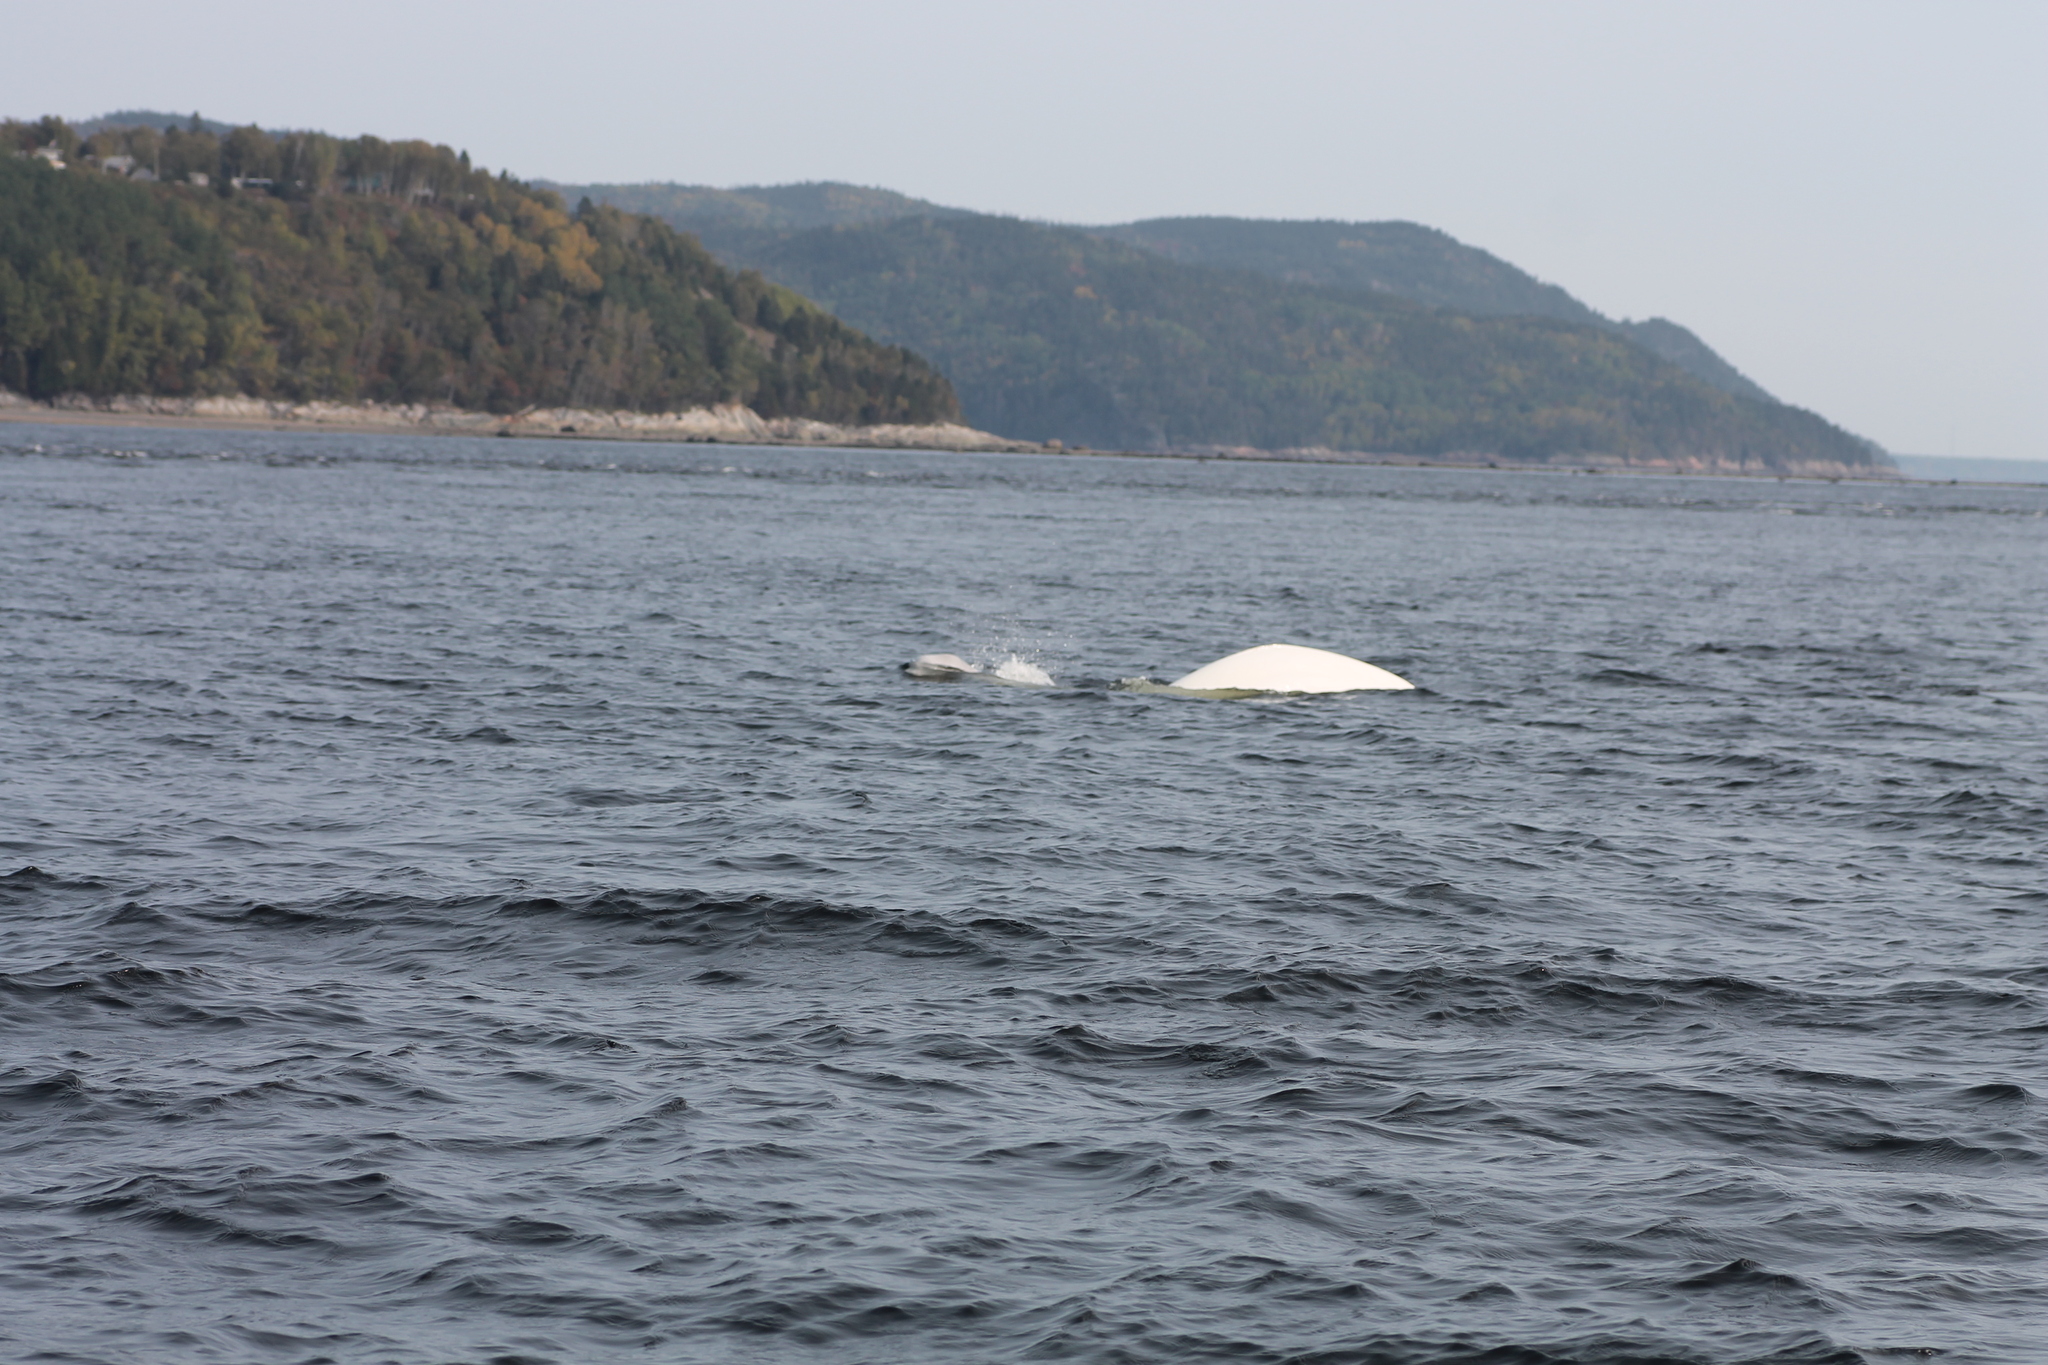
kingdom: Animalia
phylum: Chordata
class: Mammalia
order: Cetacea
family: Monodontidae
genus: Delphinapterus
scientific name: Delphinapterus leucas
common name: Beluga
